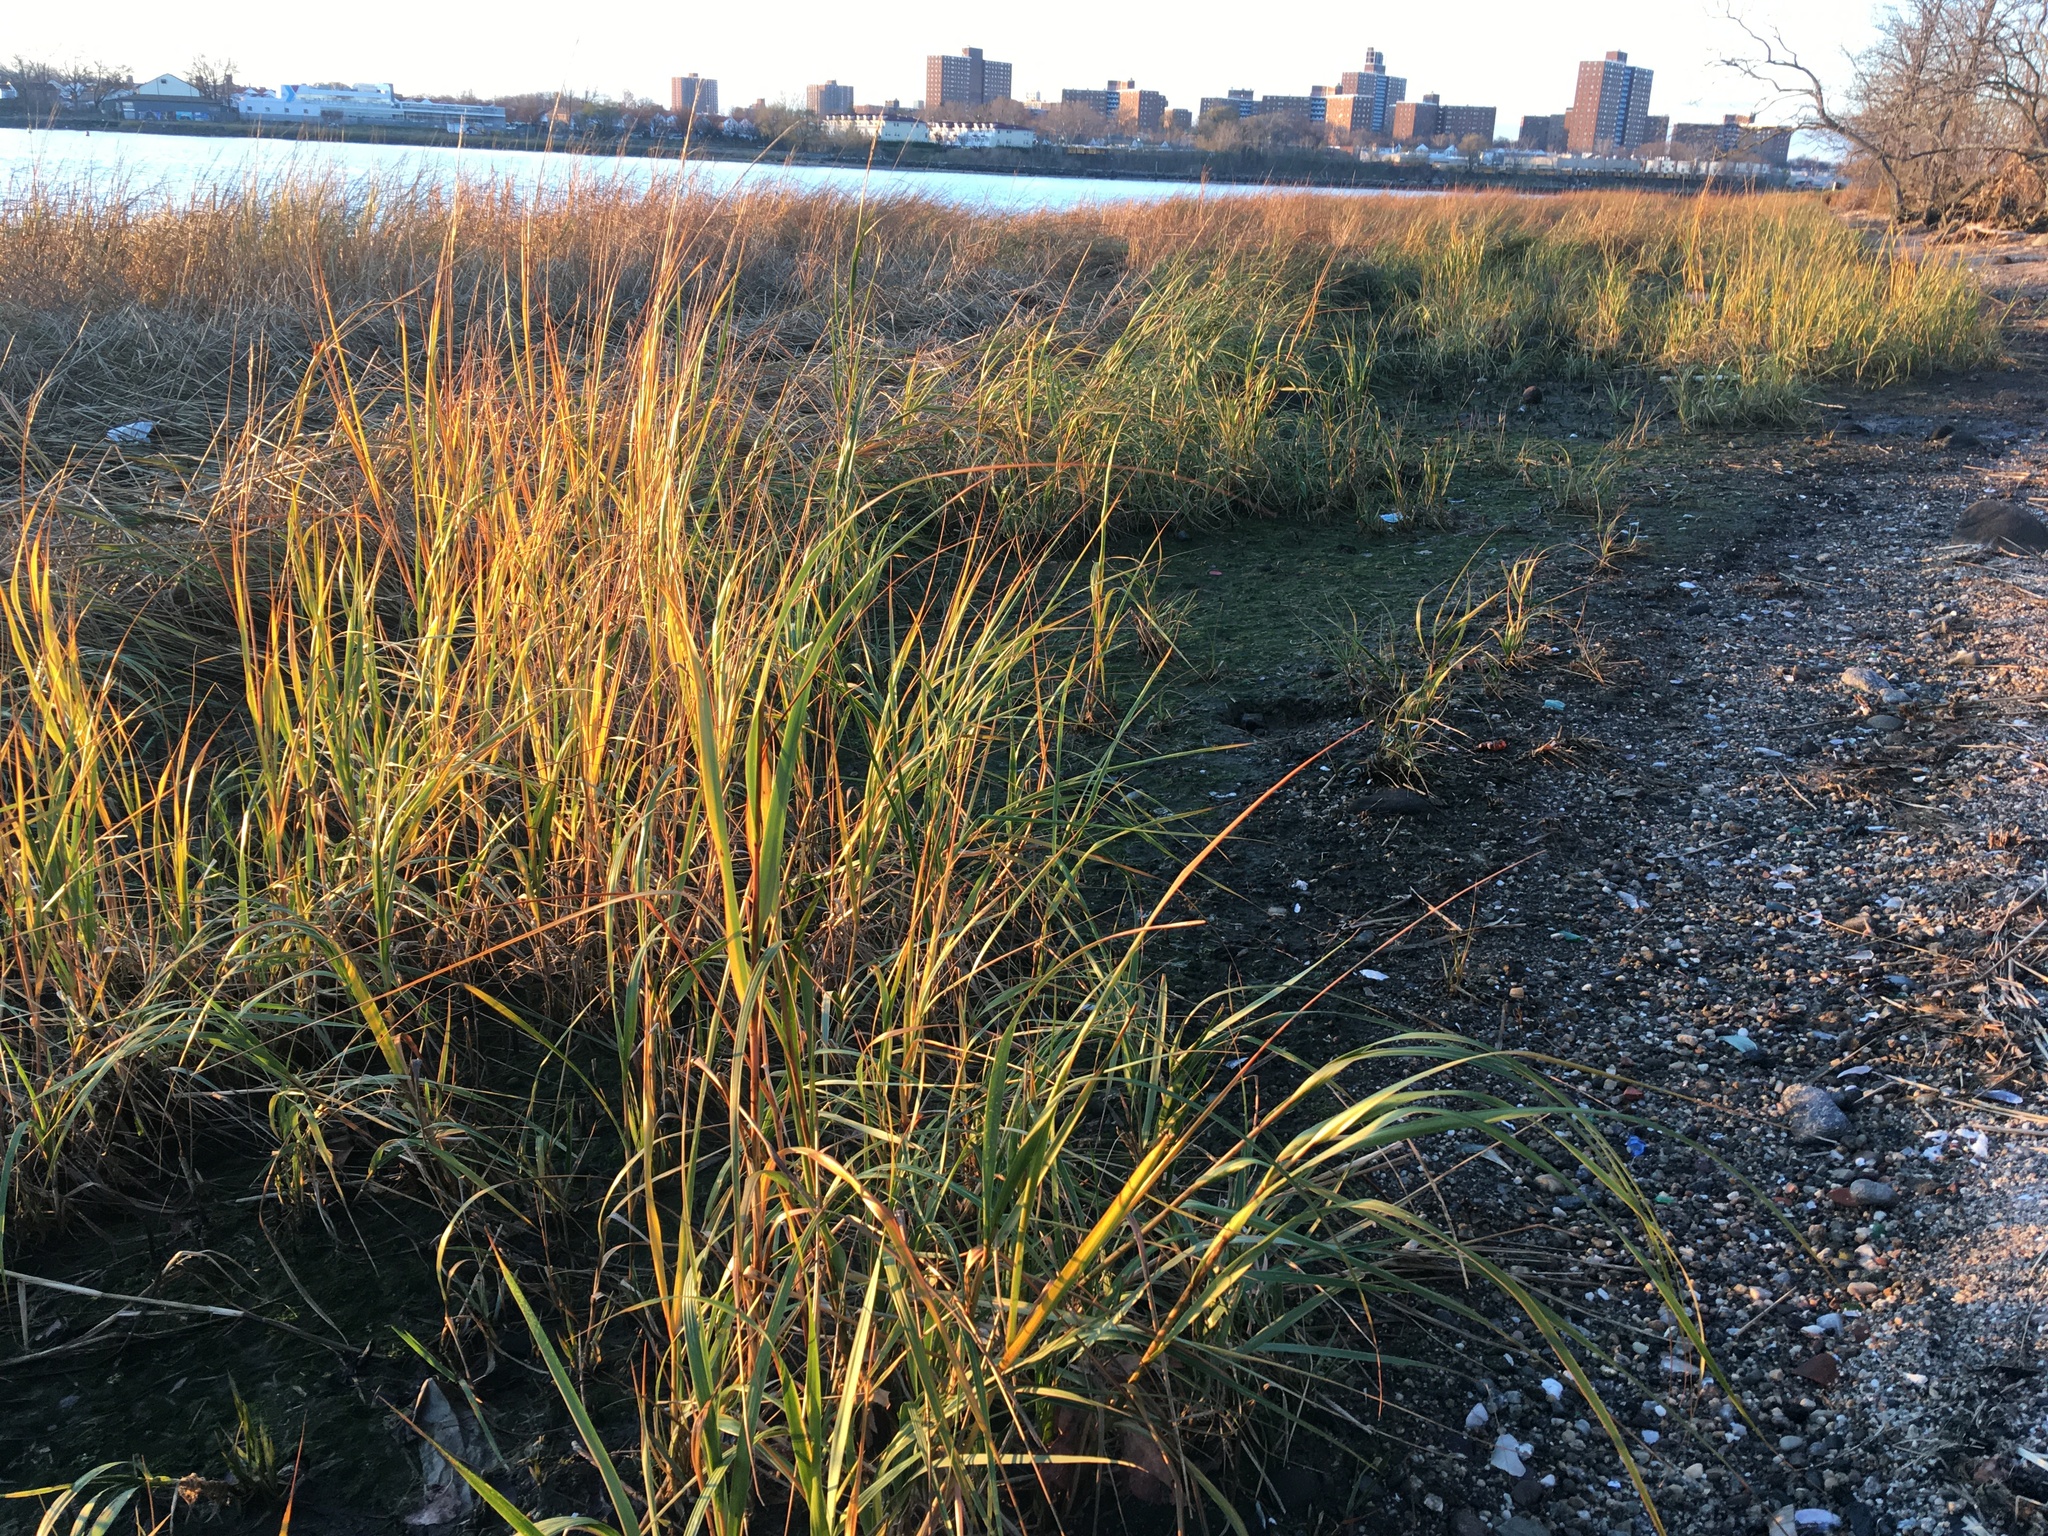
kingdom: Plantae
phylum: Tracheophyta
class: Liliopsida
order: Poales
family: Poaceae
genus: Sporobolus
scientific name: Sporobolus alterniflorus
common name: Atlantic cordgrass
